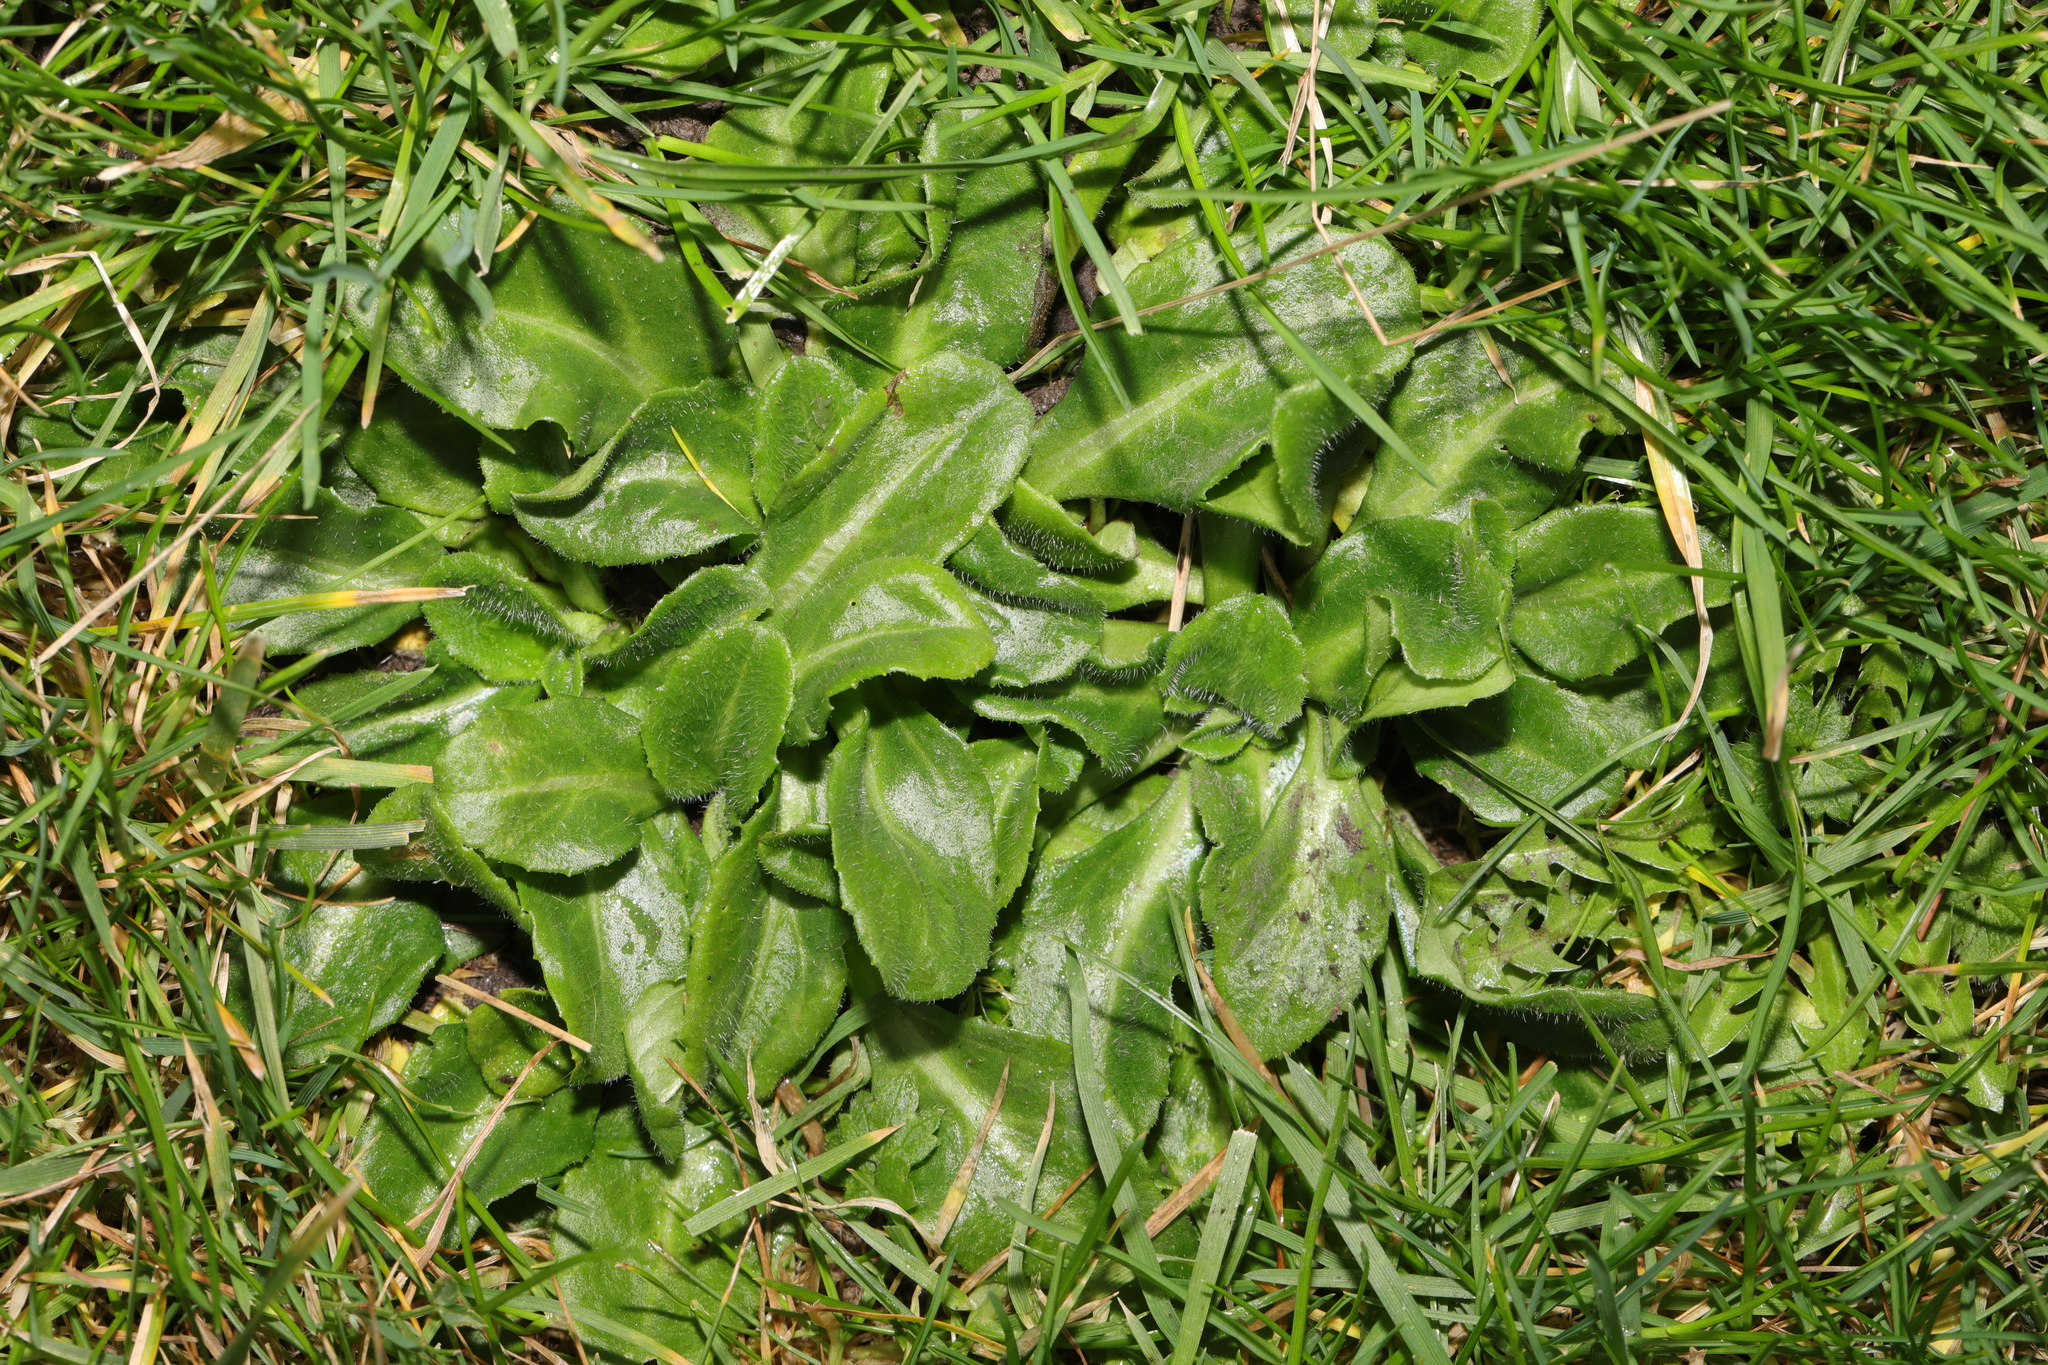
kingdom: Plantae
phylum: Tracheophyta
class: Magnoliopsida
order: Asterales
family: Asteraceae
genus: Bellis
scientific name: Bellis perennis
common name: Lawndaisy
